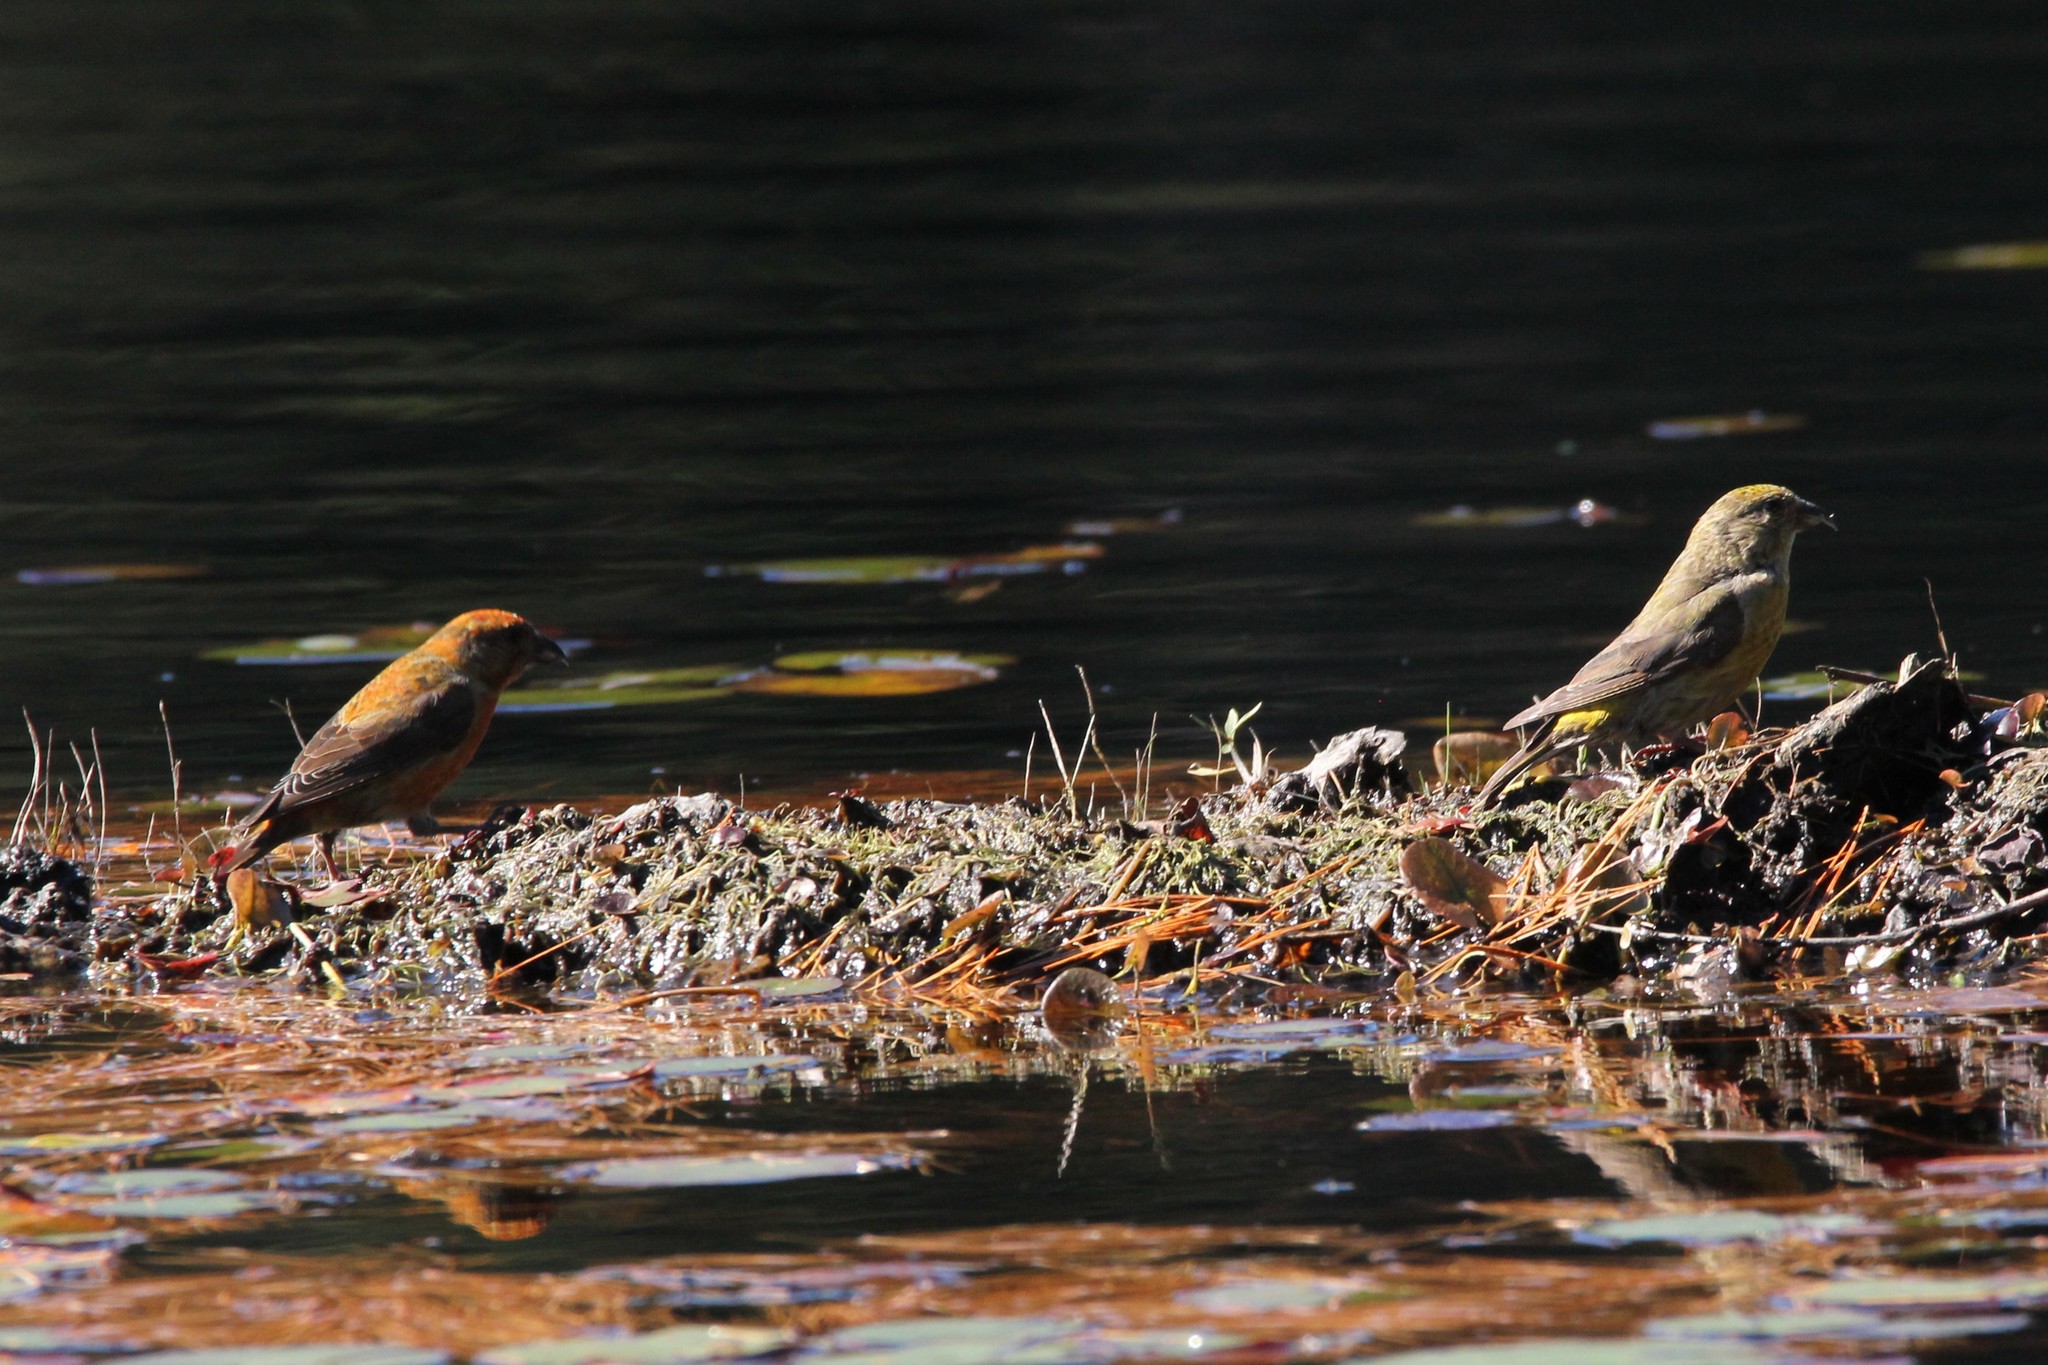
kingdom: Animalia
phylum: Chordata
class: Aves
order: Passeriformes
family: Fringillidae
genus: Loxia
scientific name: Loxia curvirostra
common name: Red crossbill
